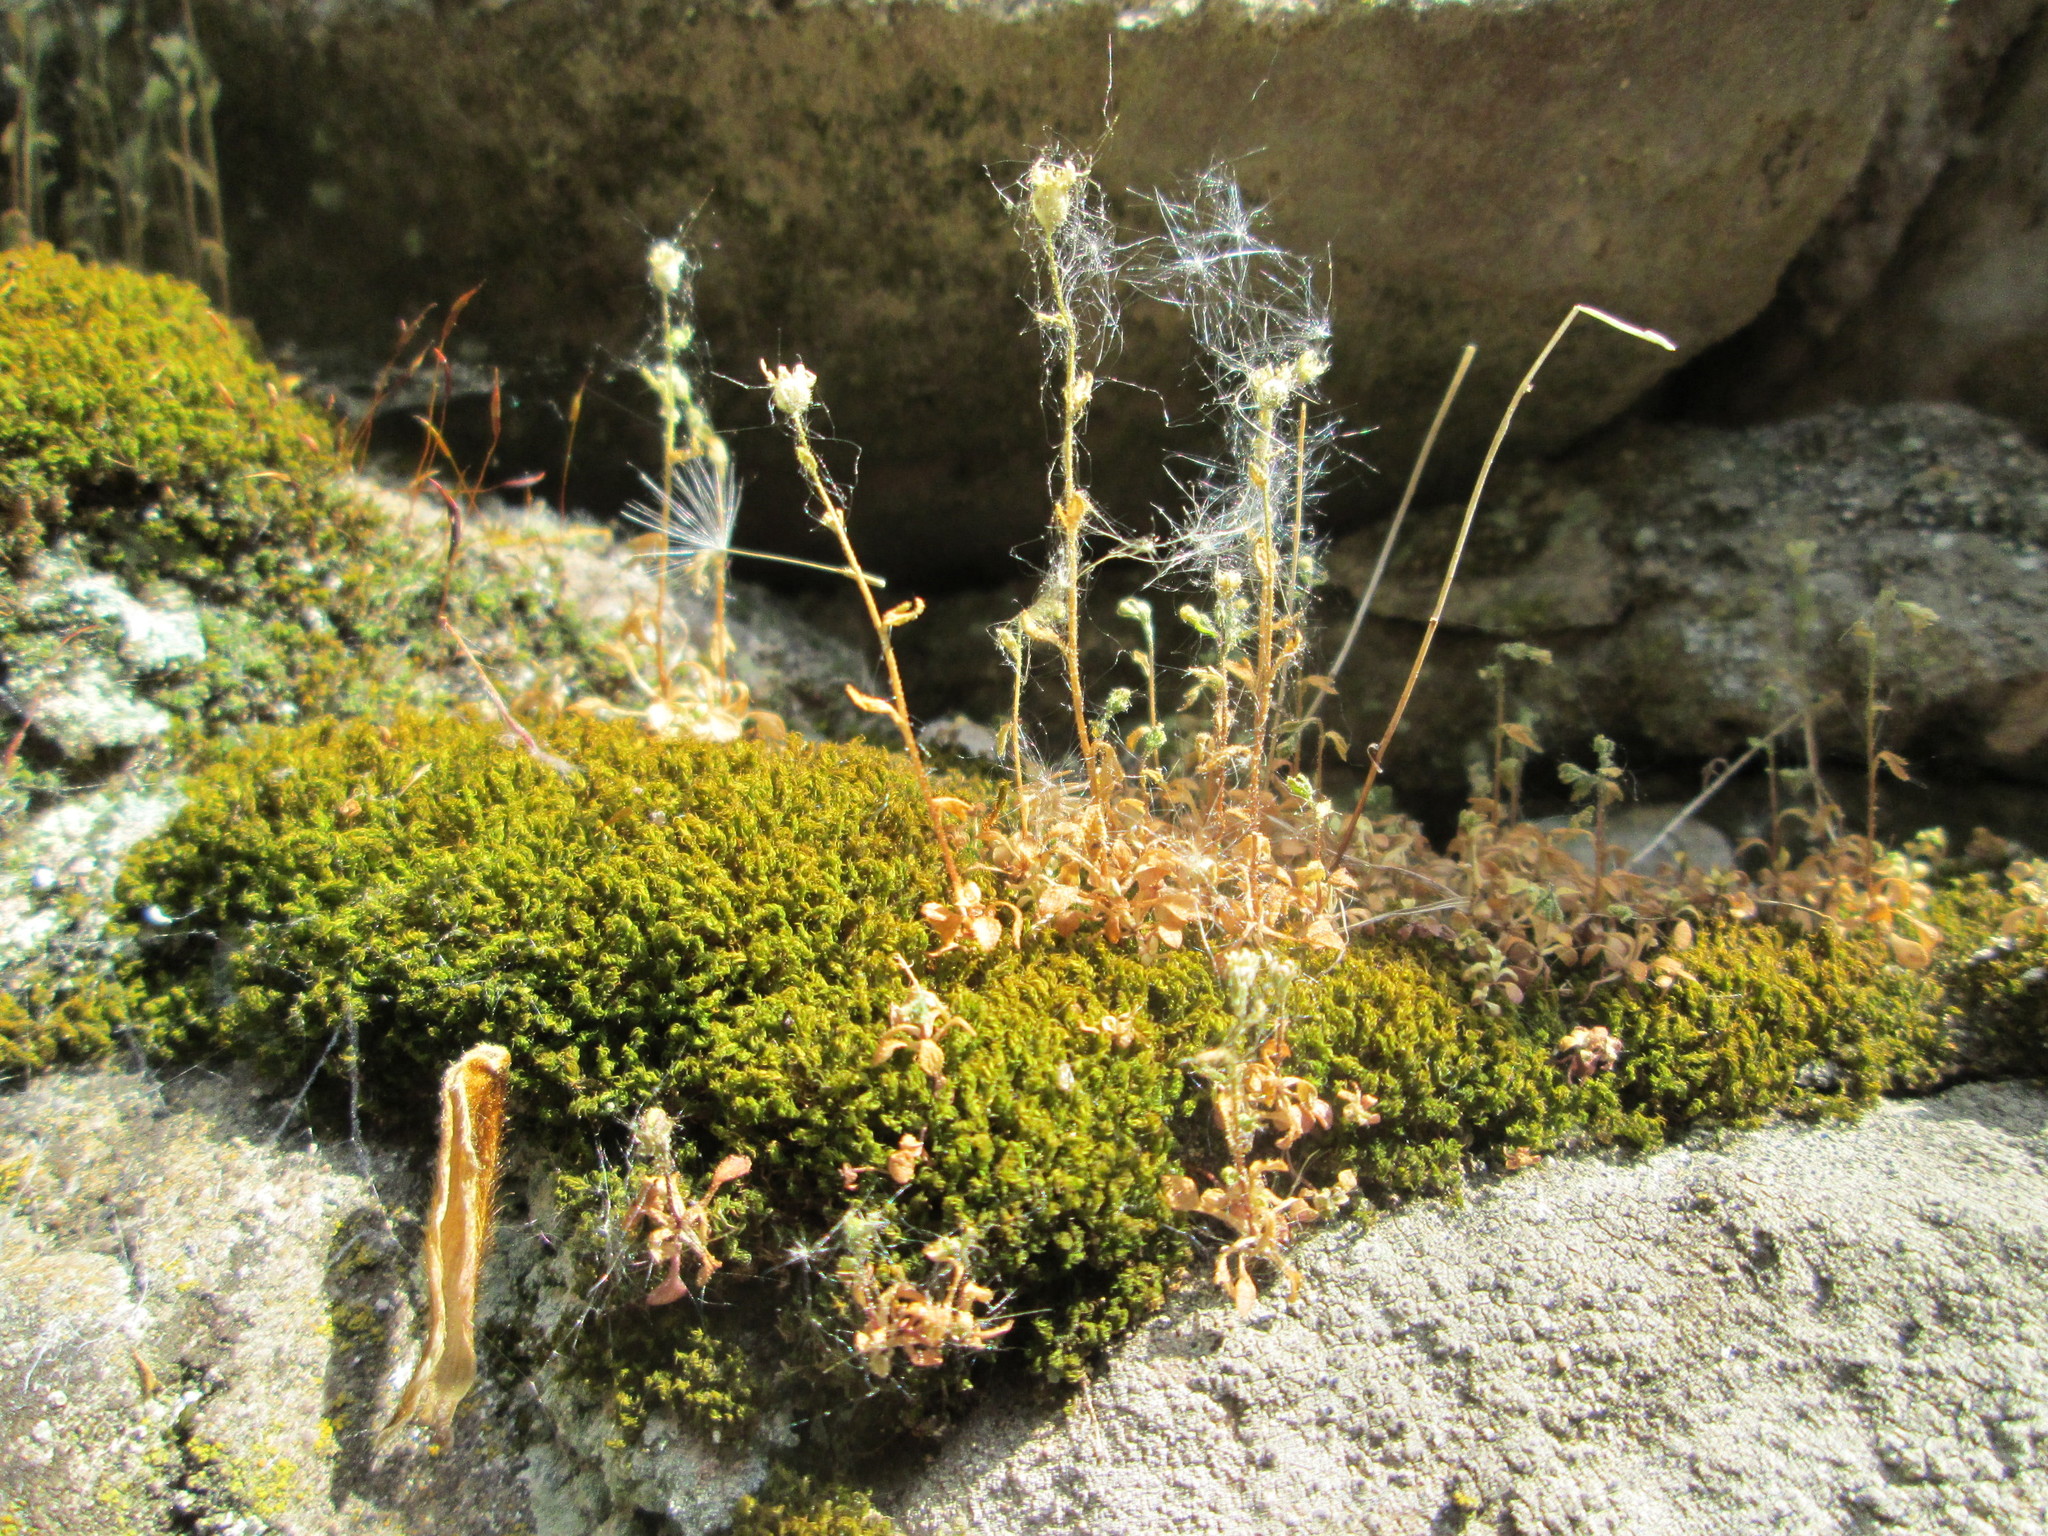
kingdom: Plantae
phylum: Tracheophyta
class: Magnoliopsida
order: Saxifragales
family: Saxifragaceae
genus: Saxifraga
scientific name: Saxifraga tridactylites
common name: Rue-leaved saxifrage
